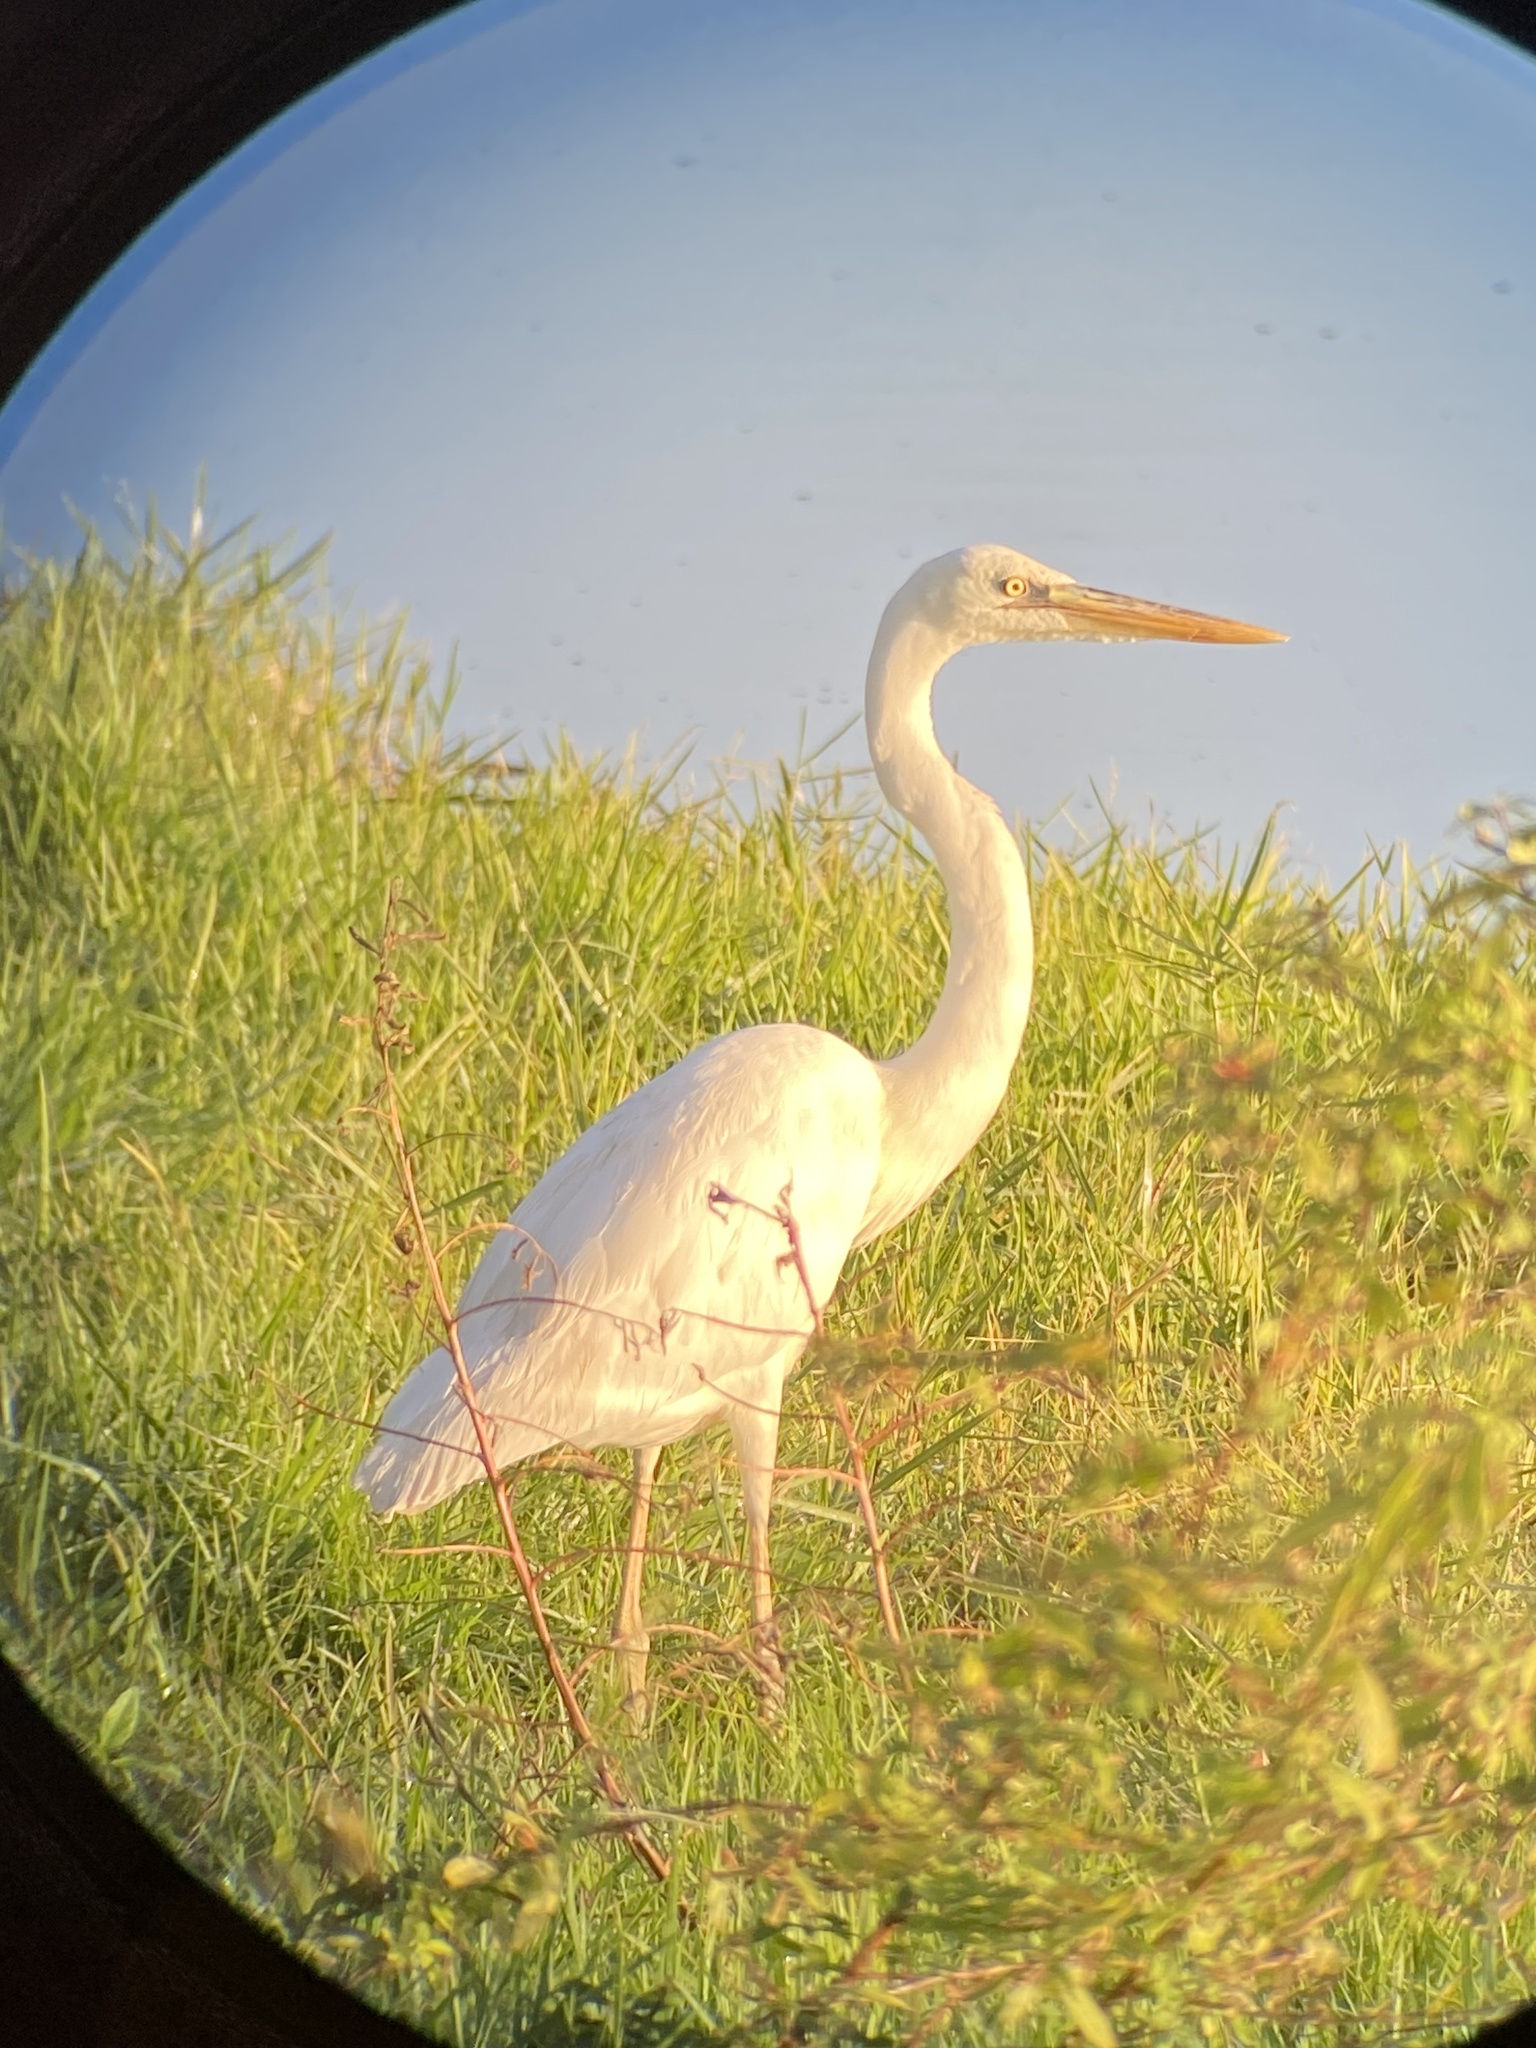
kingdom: Animalia
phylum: Chordata
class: Aves
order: Pelecaniformes
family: Ardeidae
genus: Ardea
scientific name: Ardea herodias
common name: Great blue heron
